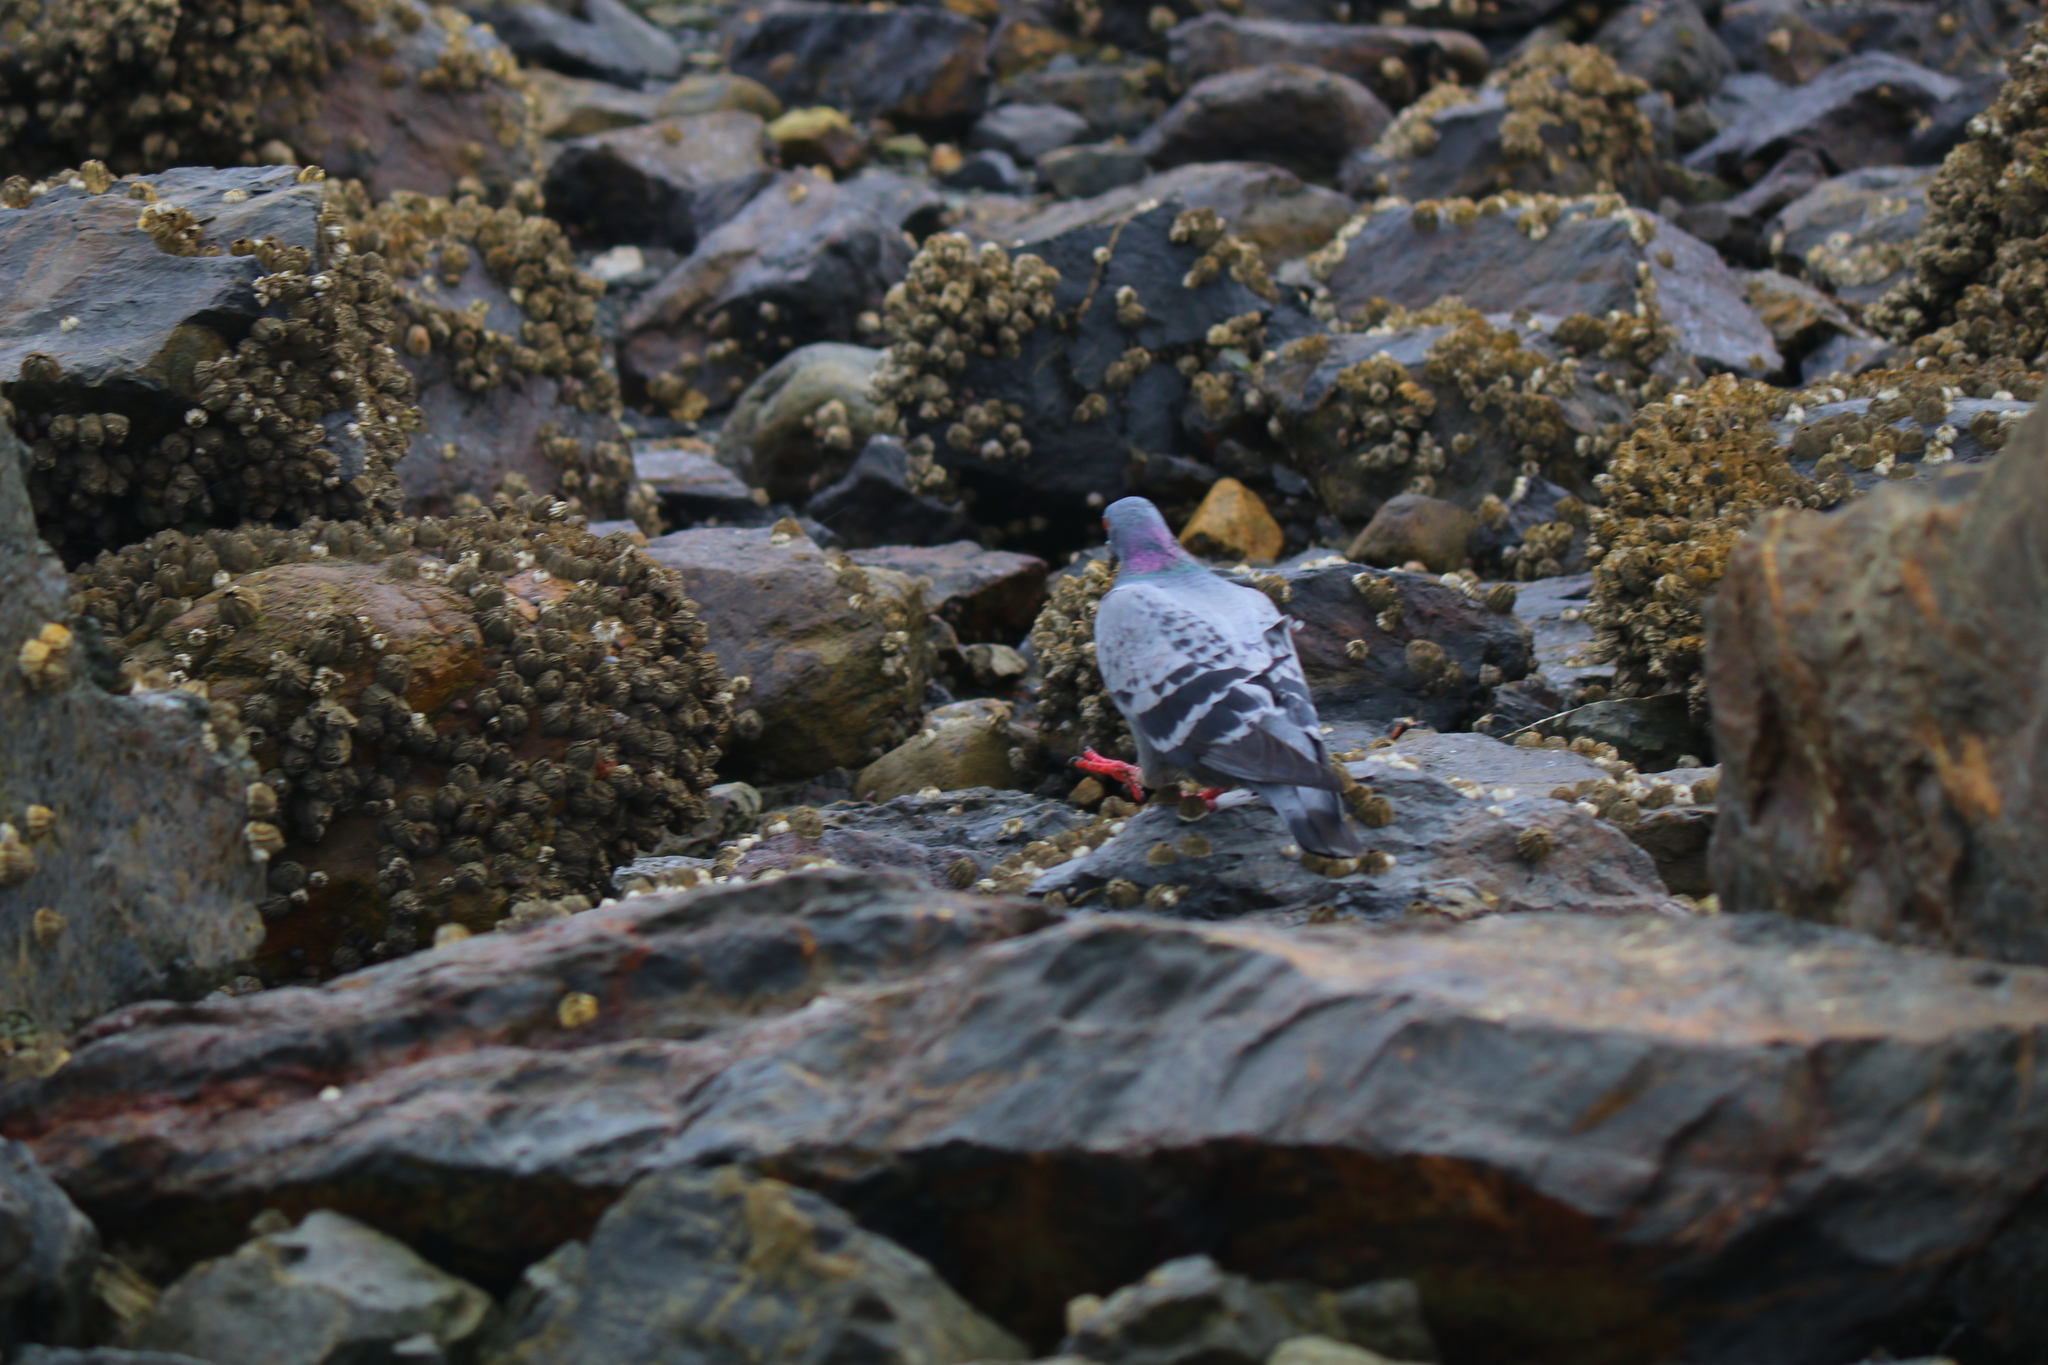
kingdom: Animalia
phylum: Chordata
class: Aves
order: Columbiformes
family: Columbidae
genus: Columba
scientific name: Columba livia
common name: Rock pigeon
